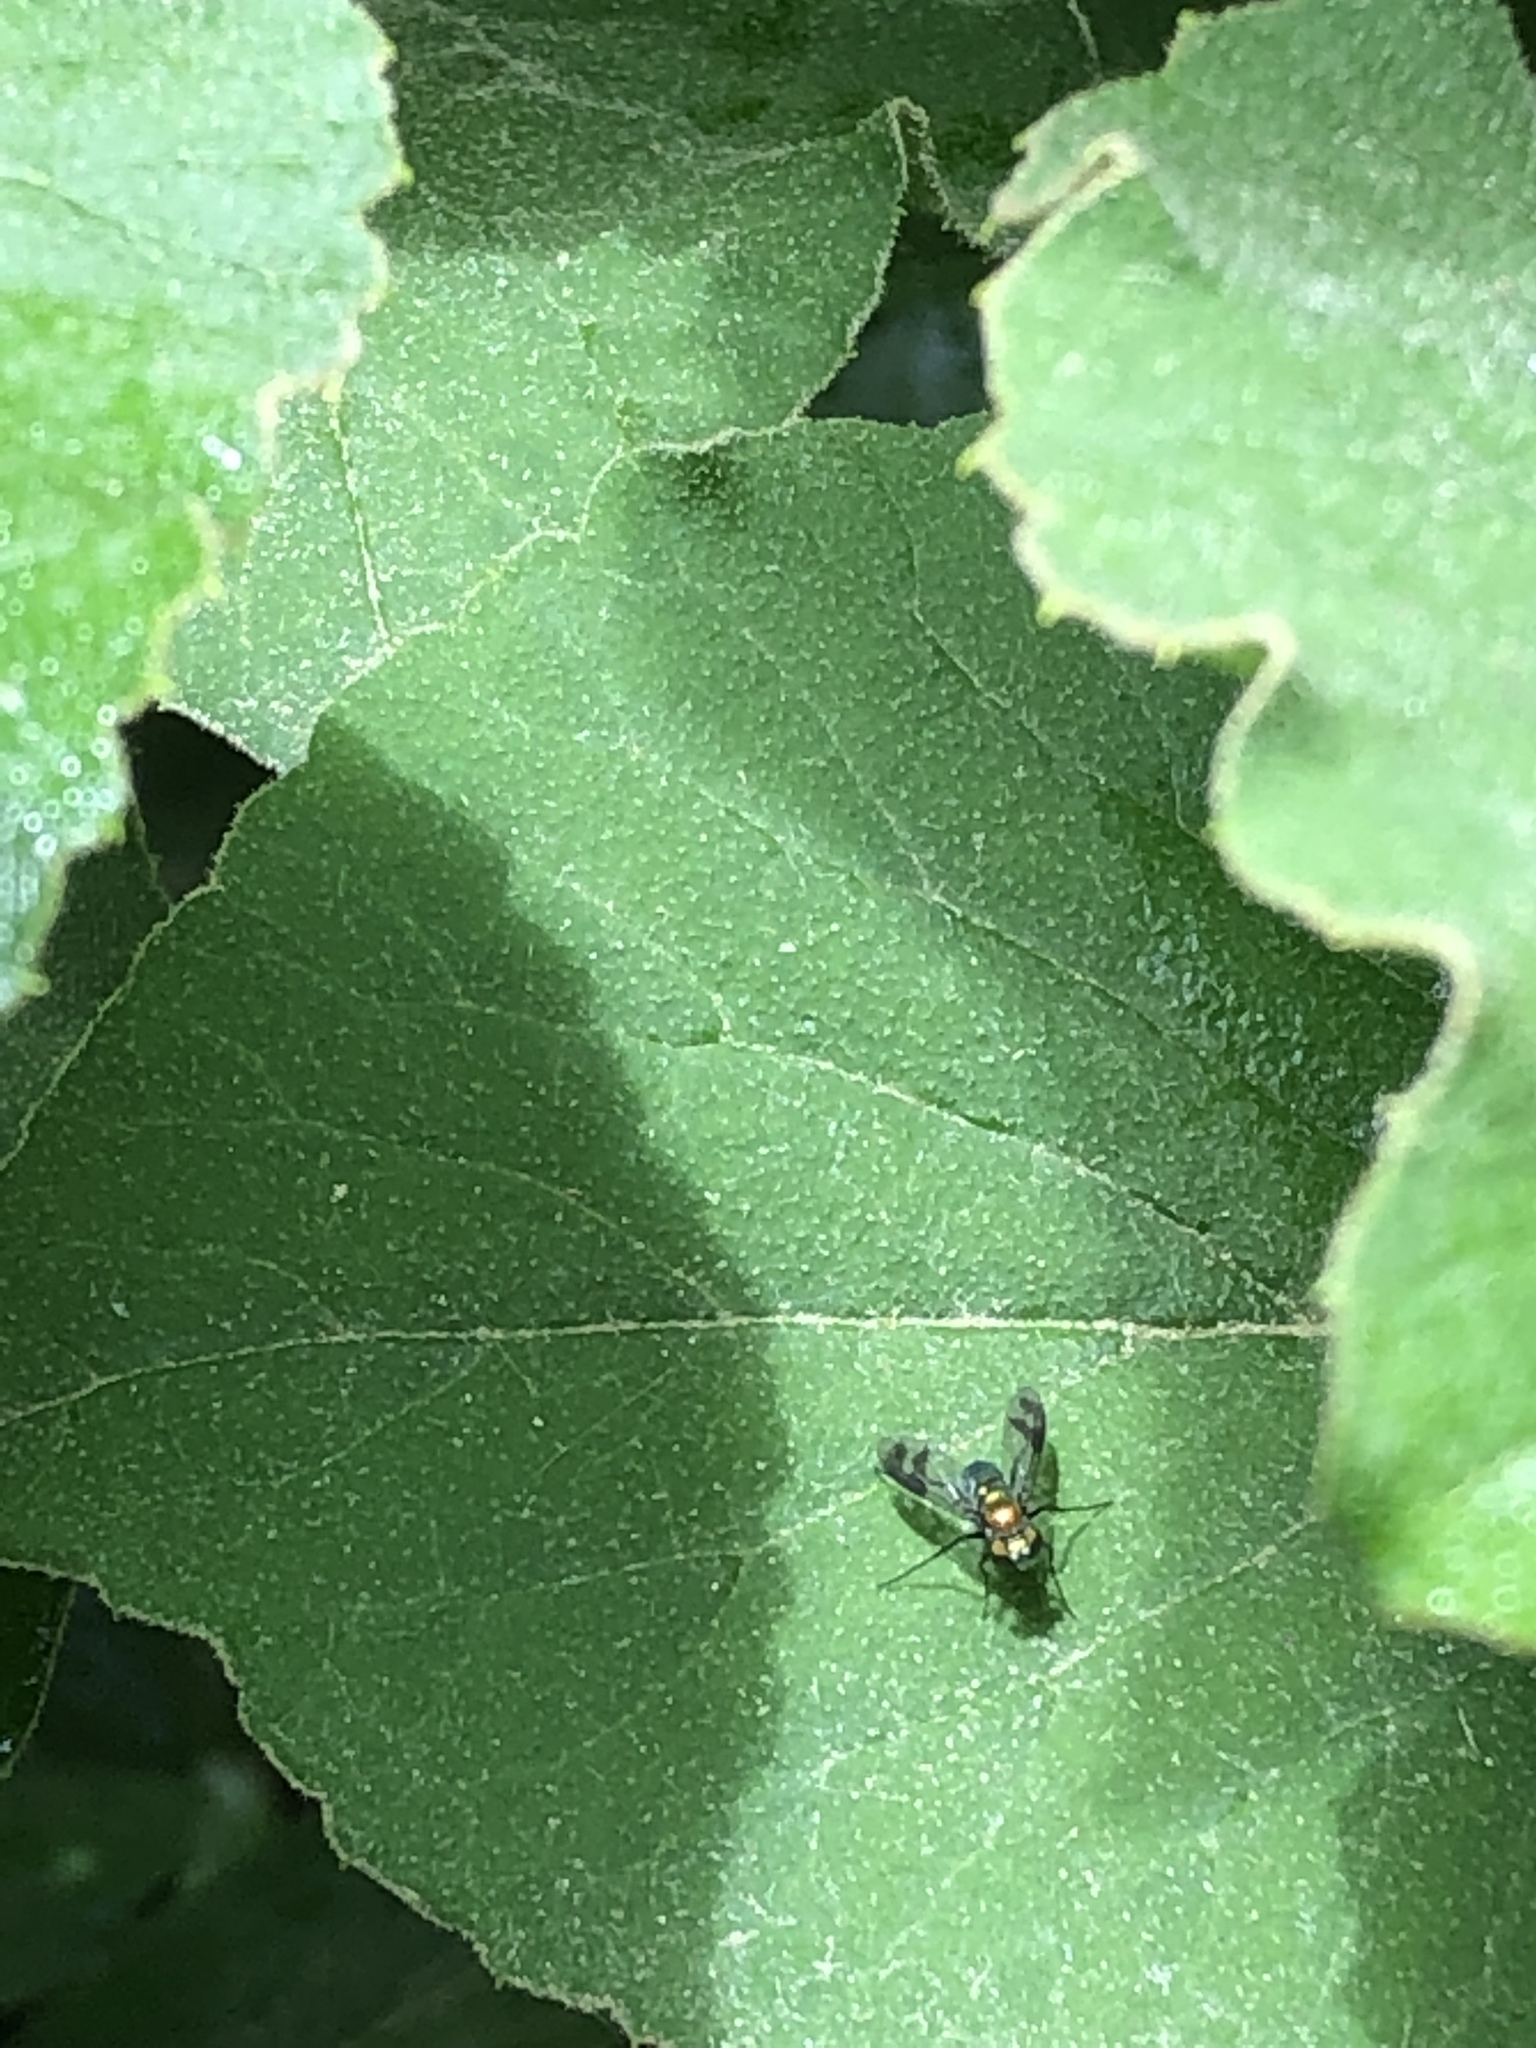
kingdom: Animalia
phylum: Arthropoda
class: Insecta
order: Diptera
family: Dolichopodidae
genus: Condylostylus
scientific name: Condylostylus patibulatus
